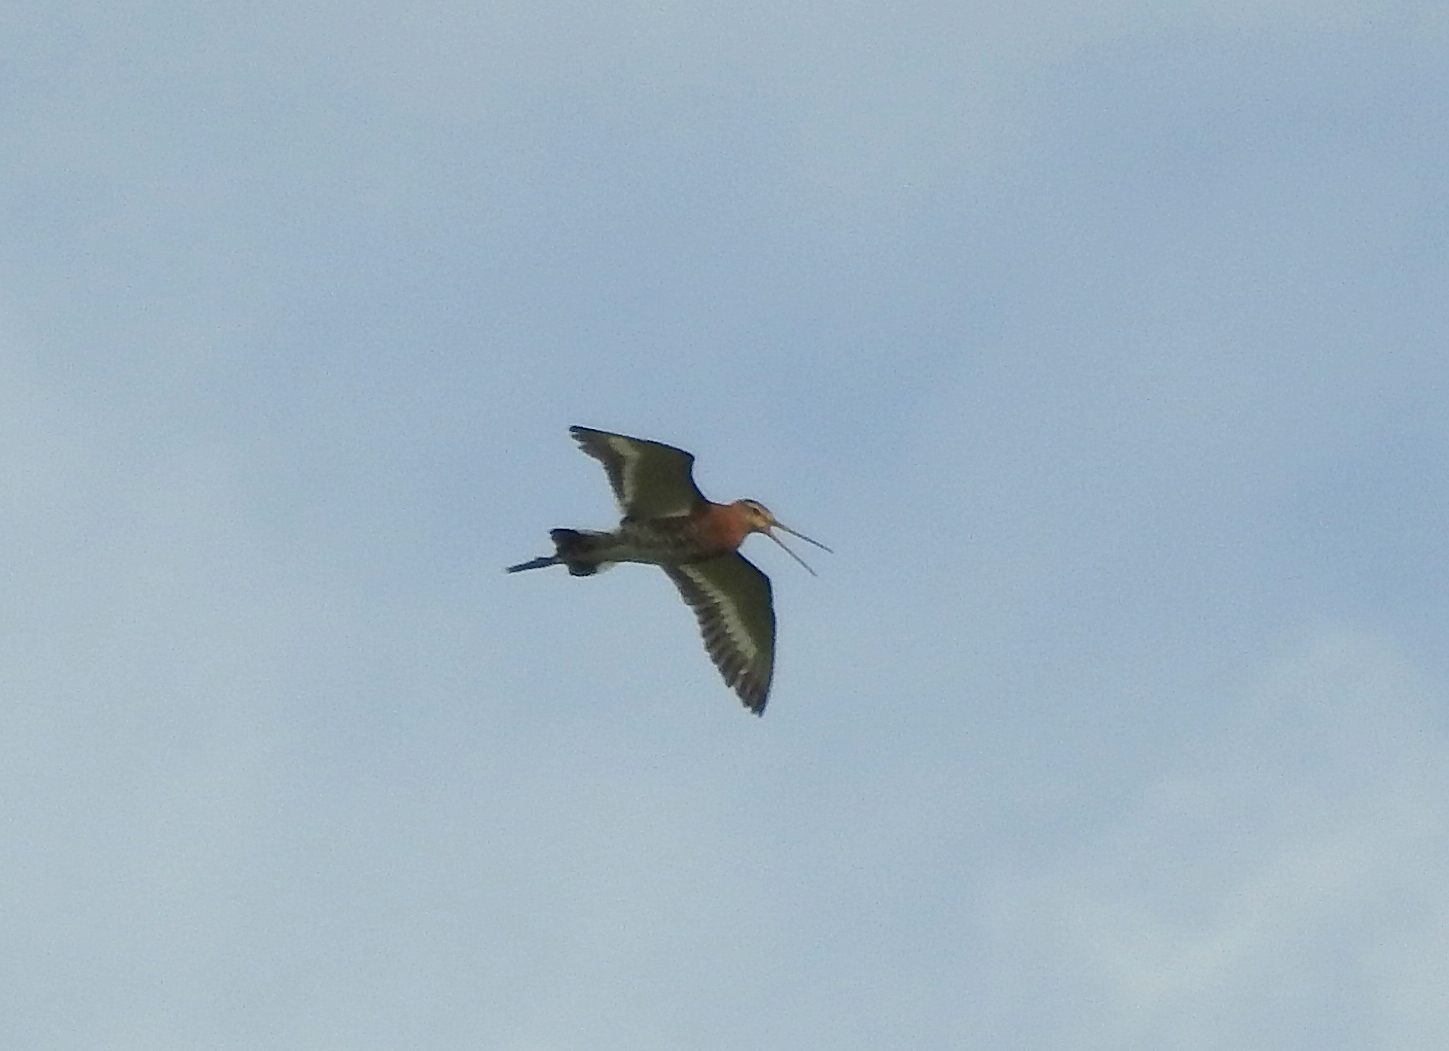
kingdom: Animalia
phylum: Chordata
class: Aves
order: Charadriiformes
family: Scolopacidae
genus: Limosa
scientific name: Limosa limosa
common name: Black-tailed godwit
